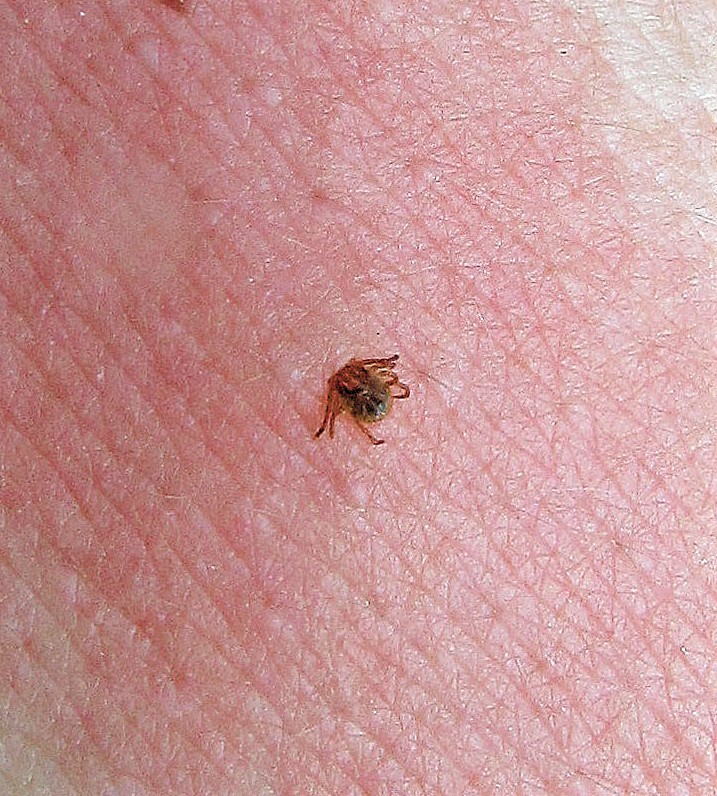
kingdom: Animalia
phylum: Arthropoda
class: Arachnida
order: Ixodida
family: Ixodidae
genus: Amblyomma
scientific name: Amblyomma cajennense
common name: Cayenne tick
